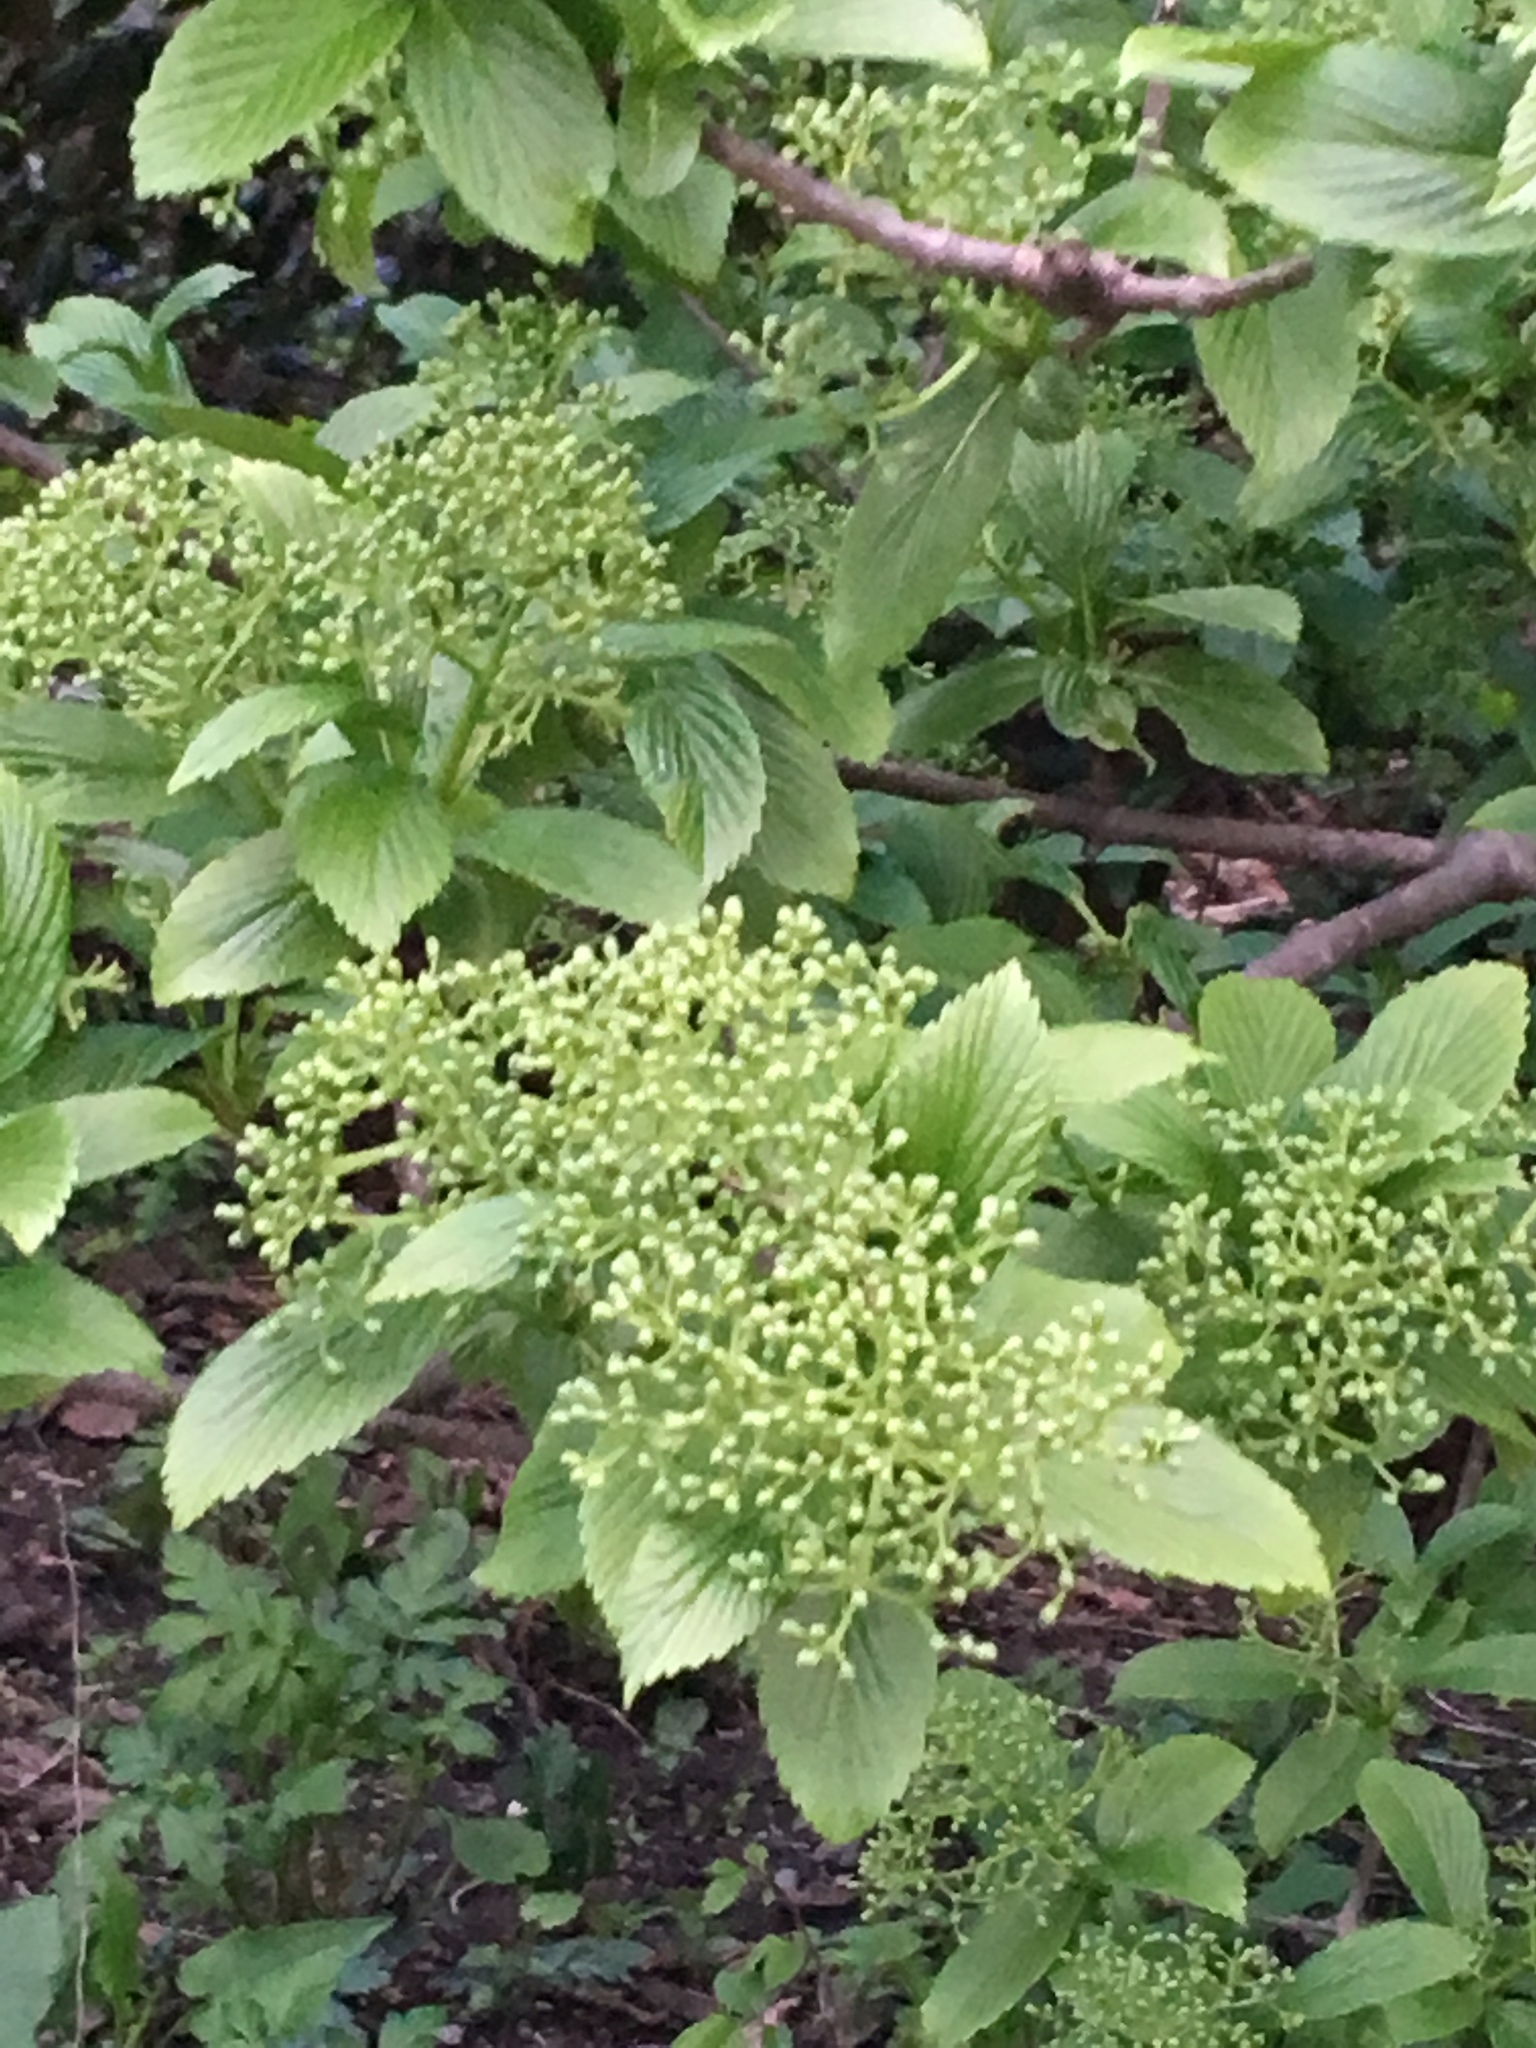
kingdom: Plantae
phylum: Tracheophyta
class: Magnoliopsida
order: Dipsacales
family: Viburnaceae
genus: Viburnum
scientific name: Viburnum sieboldii
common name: Siebold's arrowwood
